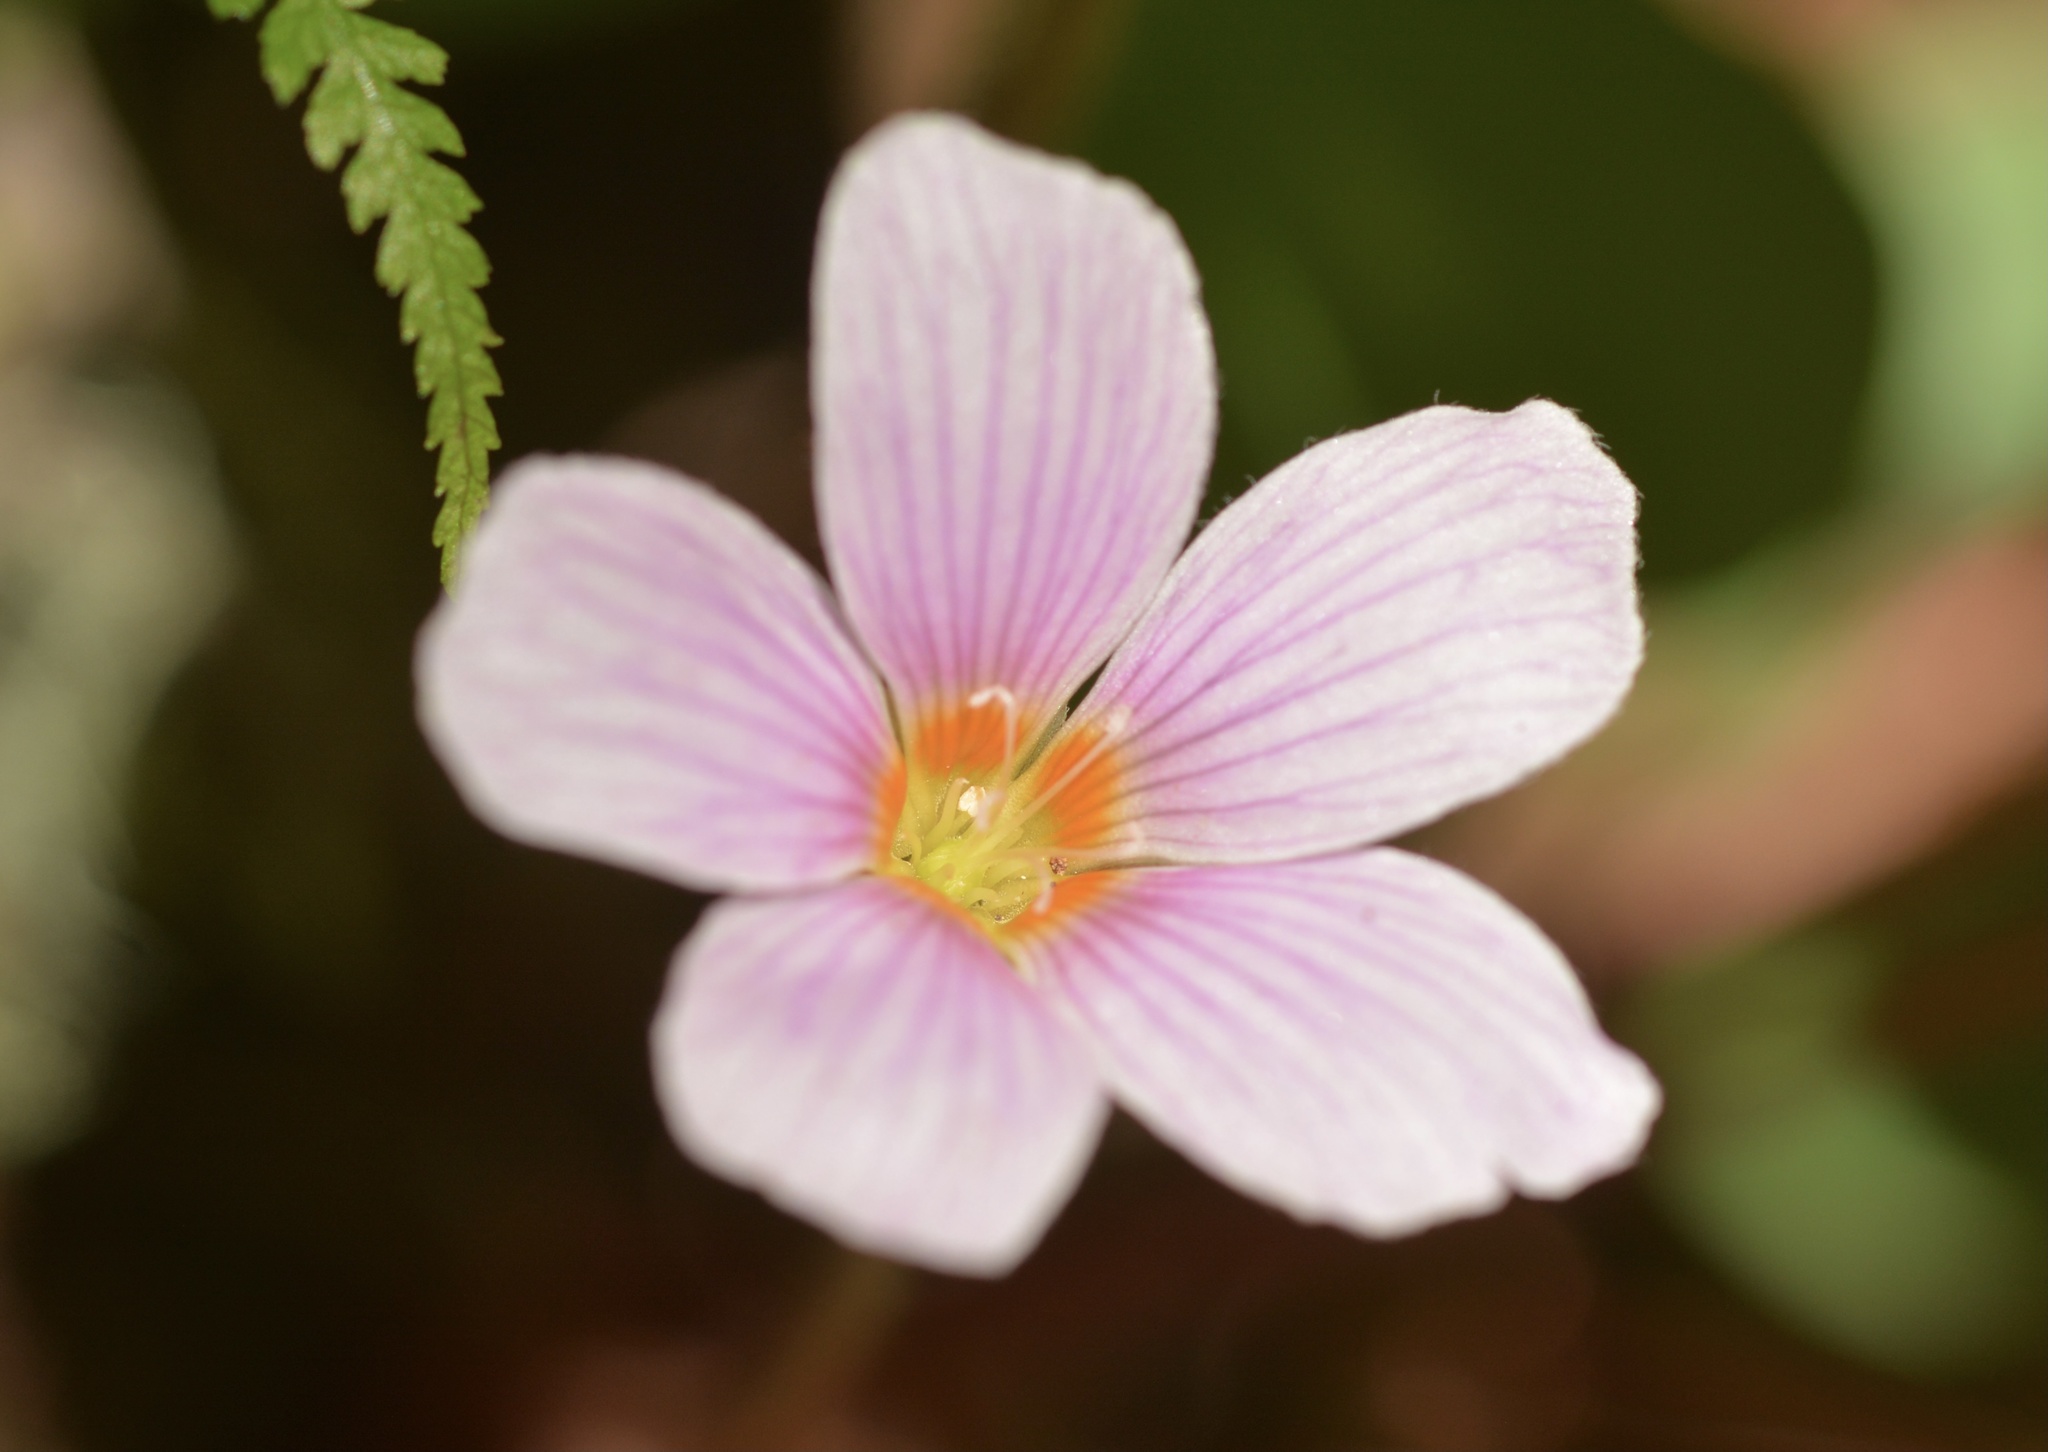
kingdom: Plantae
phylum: Tracheophyta
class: Magnoliopsida
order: Oxalidales
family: Oxalidaceae
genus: Oxalis
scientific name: Oxalis oregana
